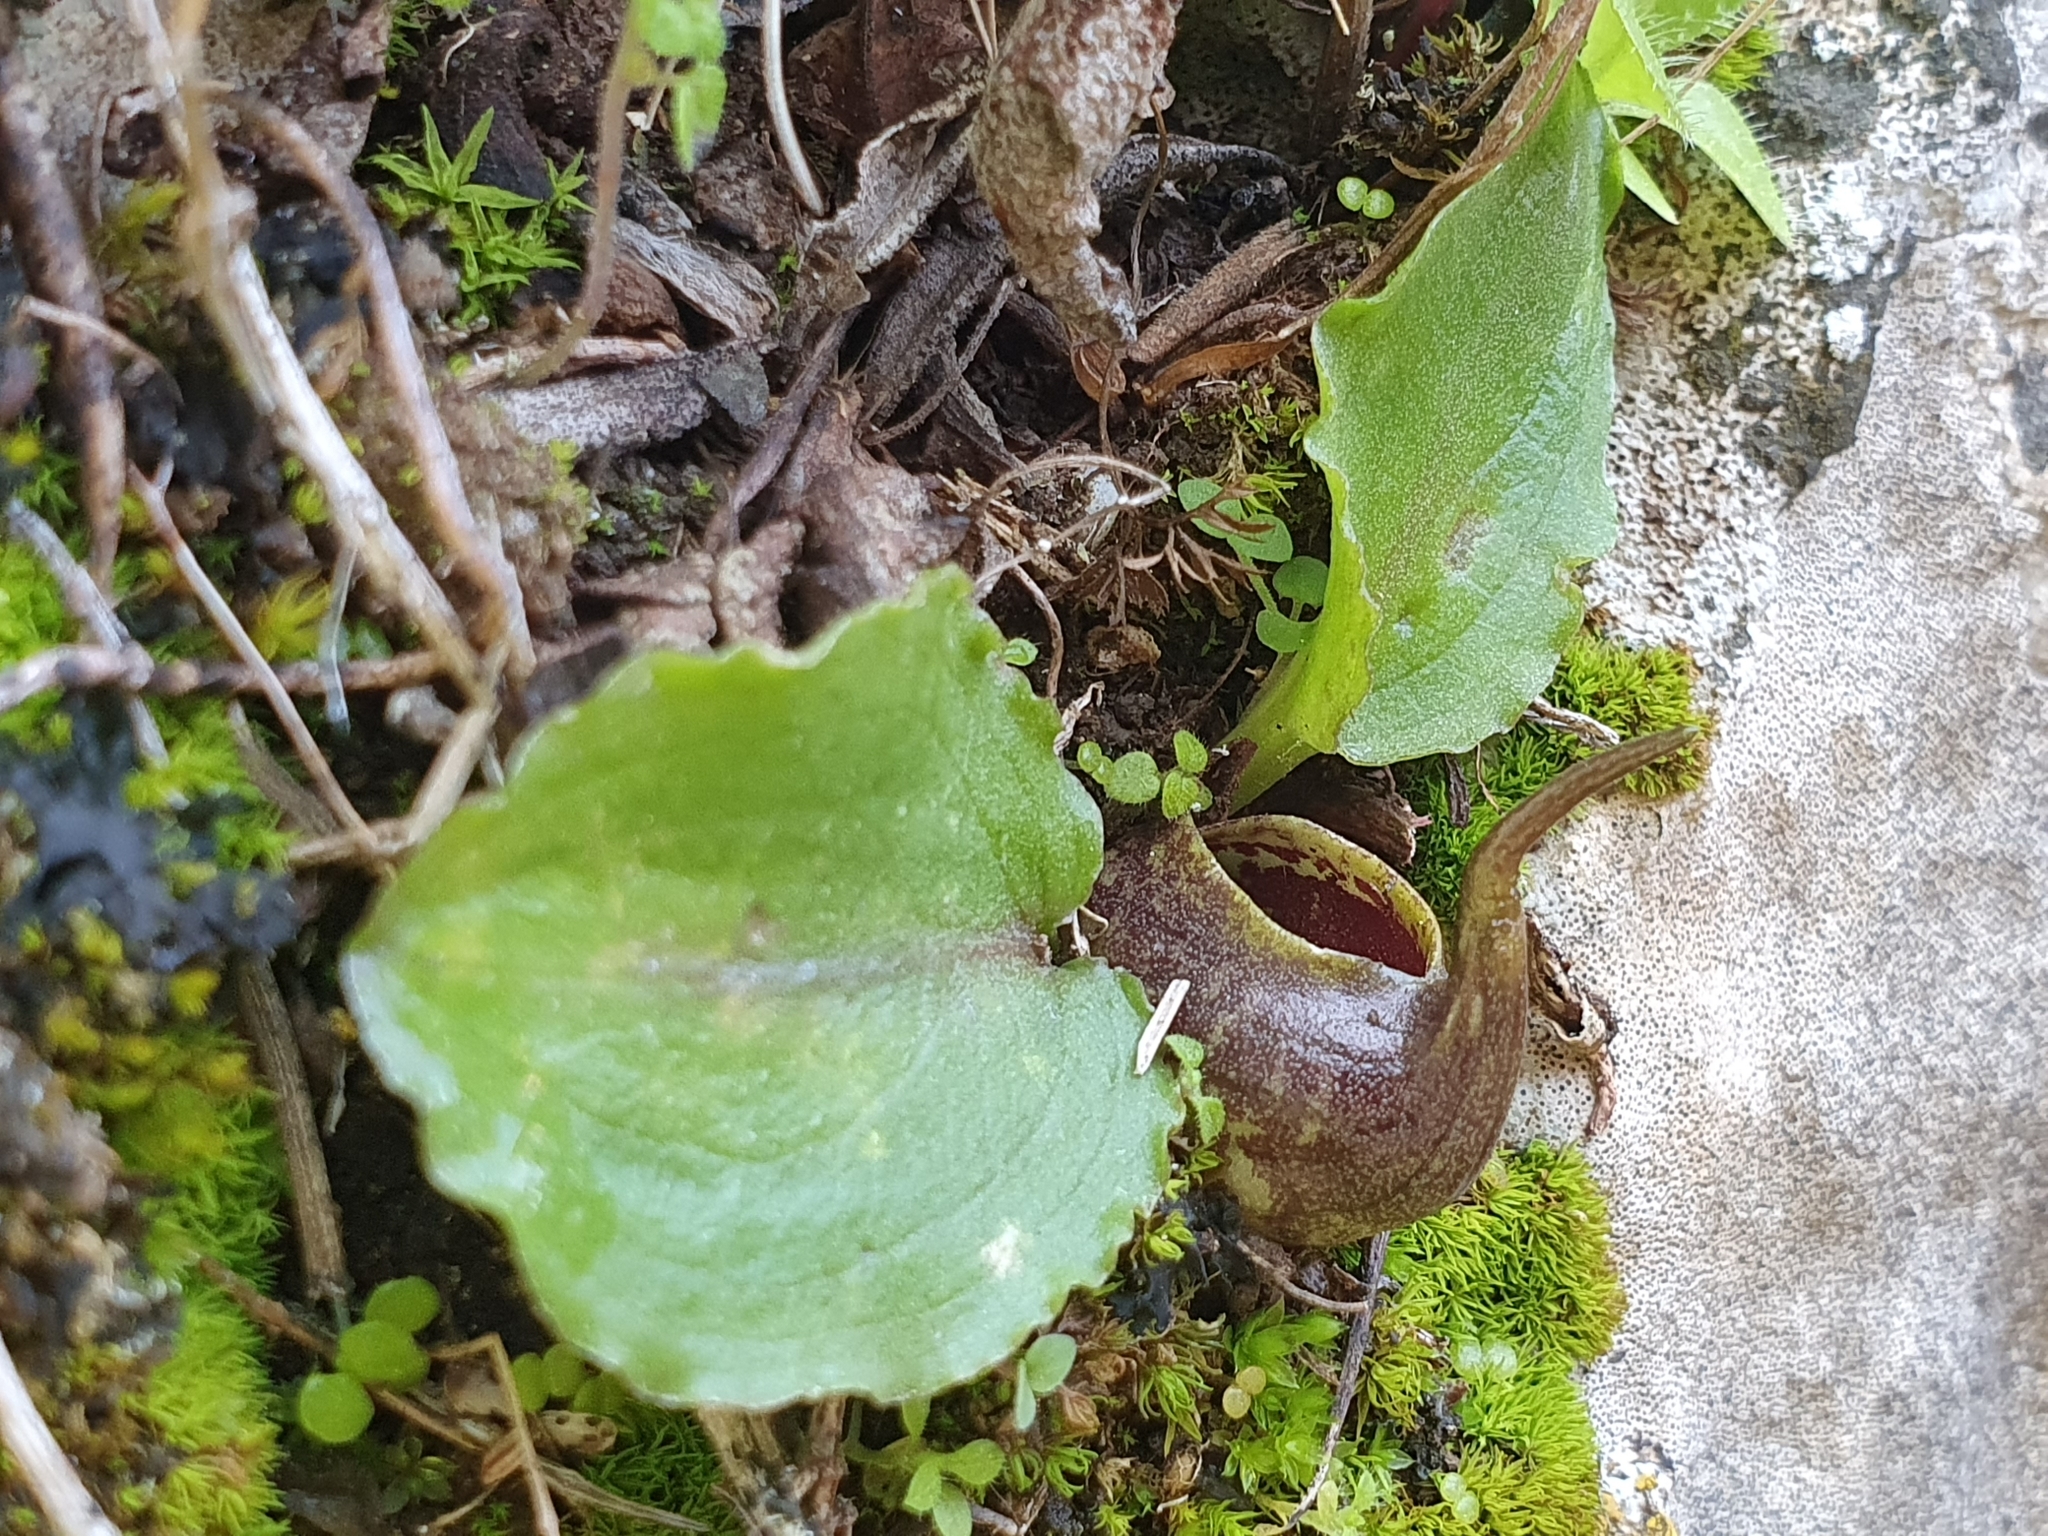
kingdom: Plantae
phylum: Tracheophyta
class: Liliopsida
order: Alismatales
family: Araceae
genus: Ambrosina
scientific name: Ambrosina bassii
